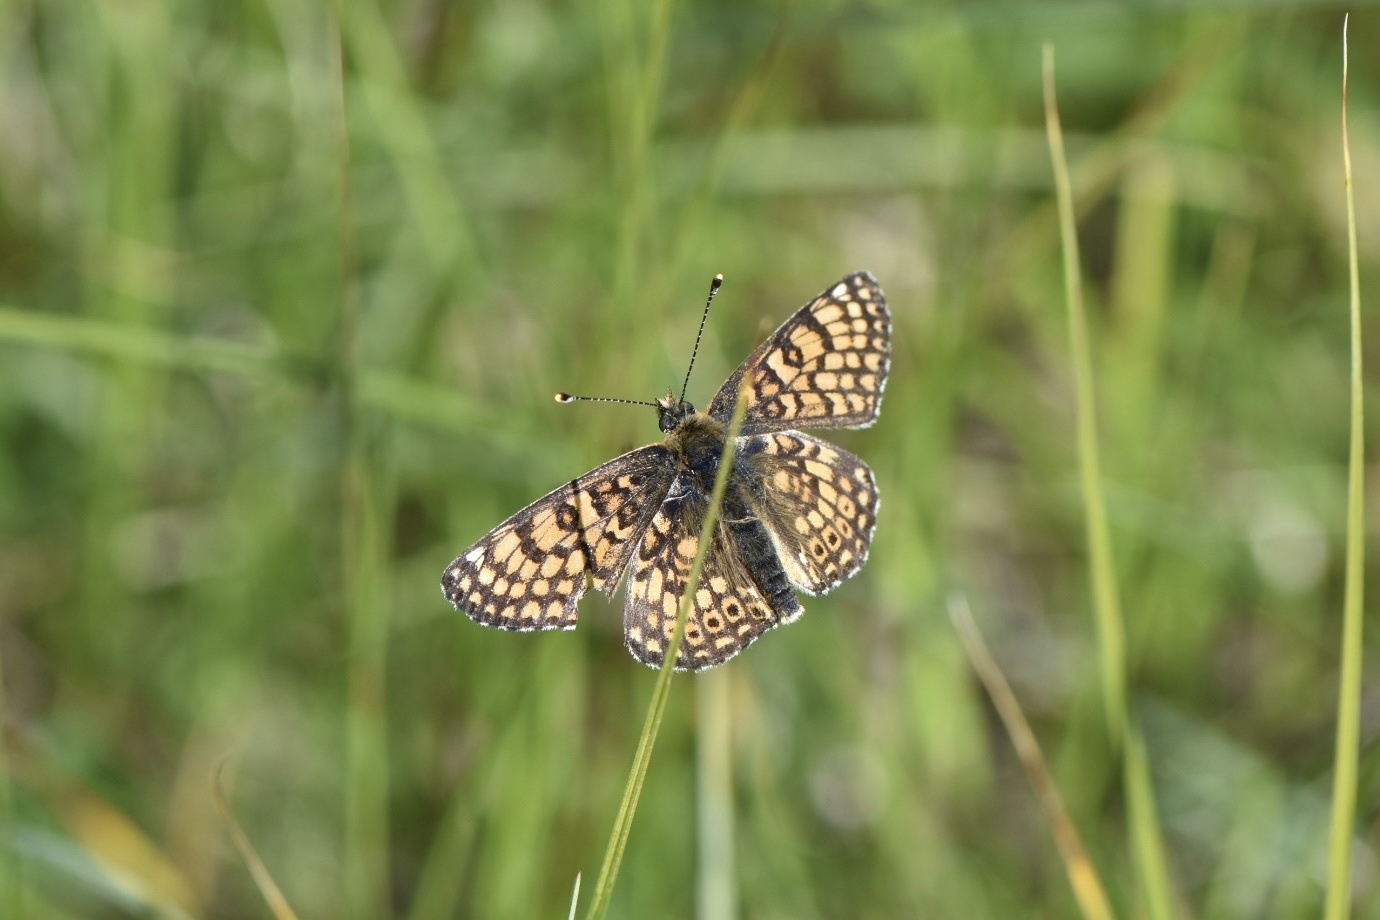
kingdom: Animalia
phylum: Arthropoda
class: Insecta
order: Lepidoptera
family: Nymphalidae
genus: Melitaea
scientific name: Melitaea cinxia
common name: Glanville fritillary
